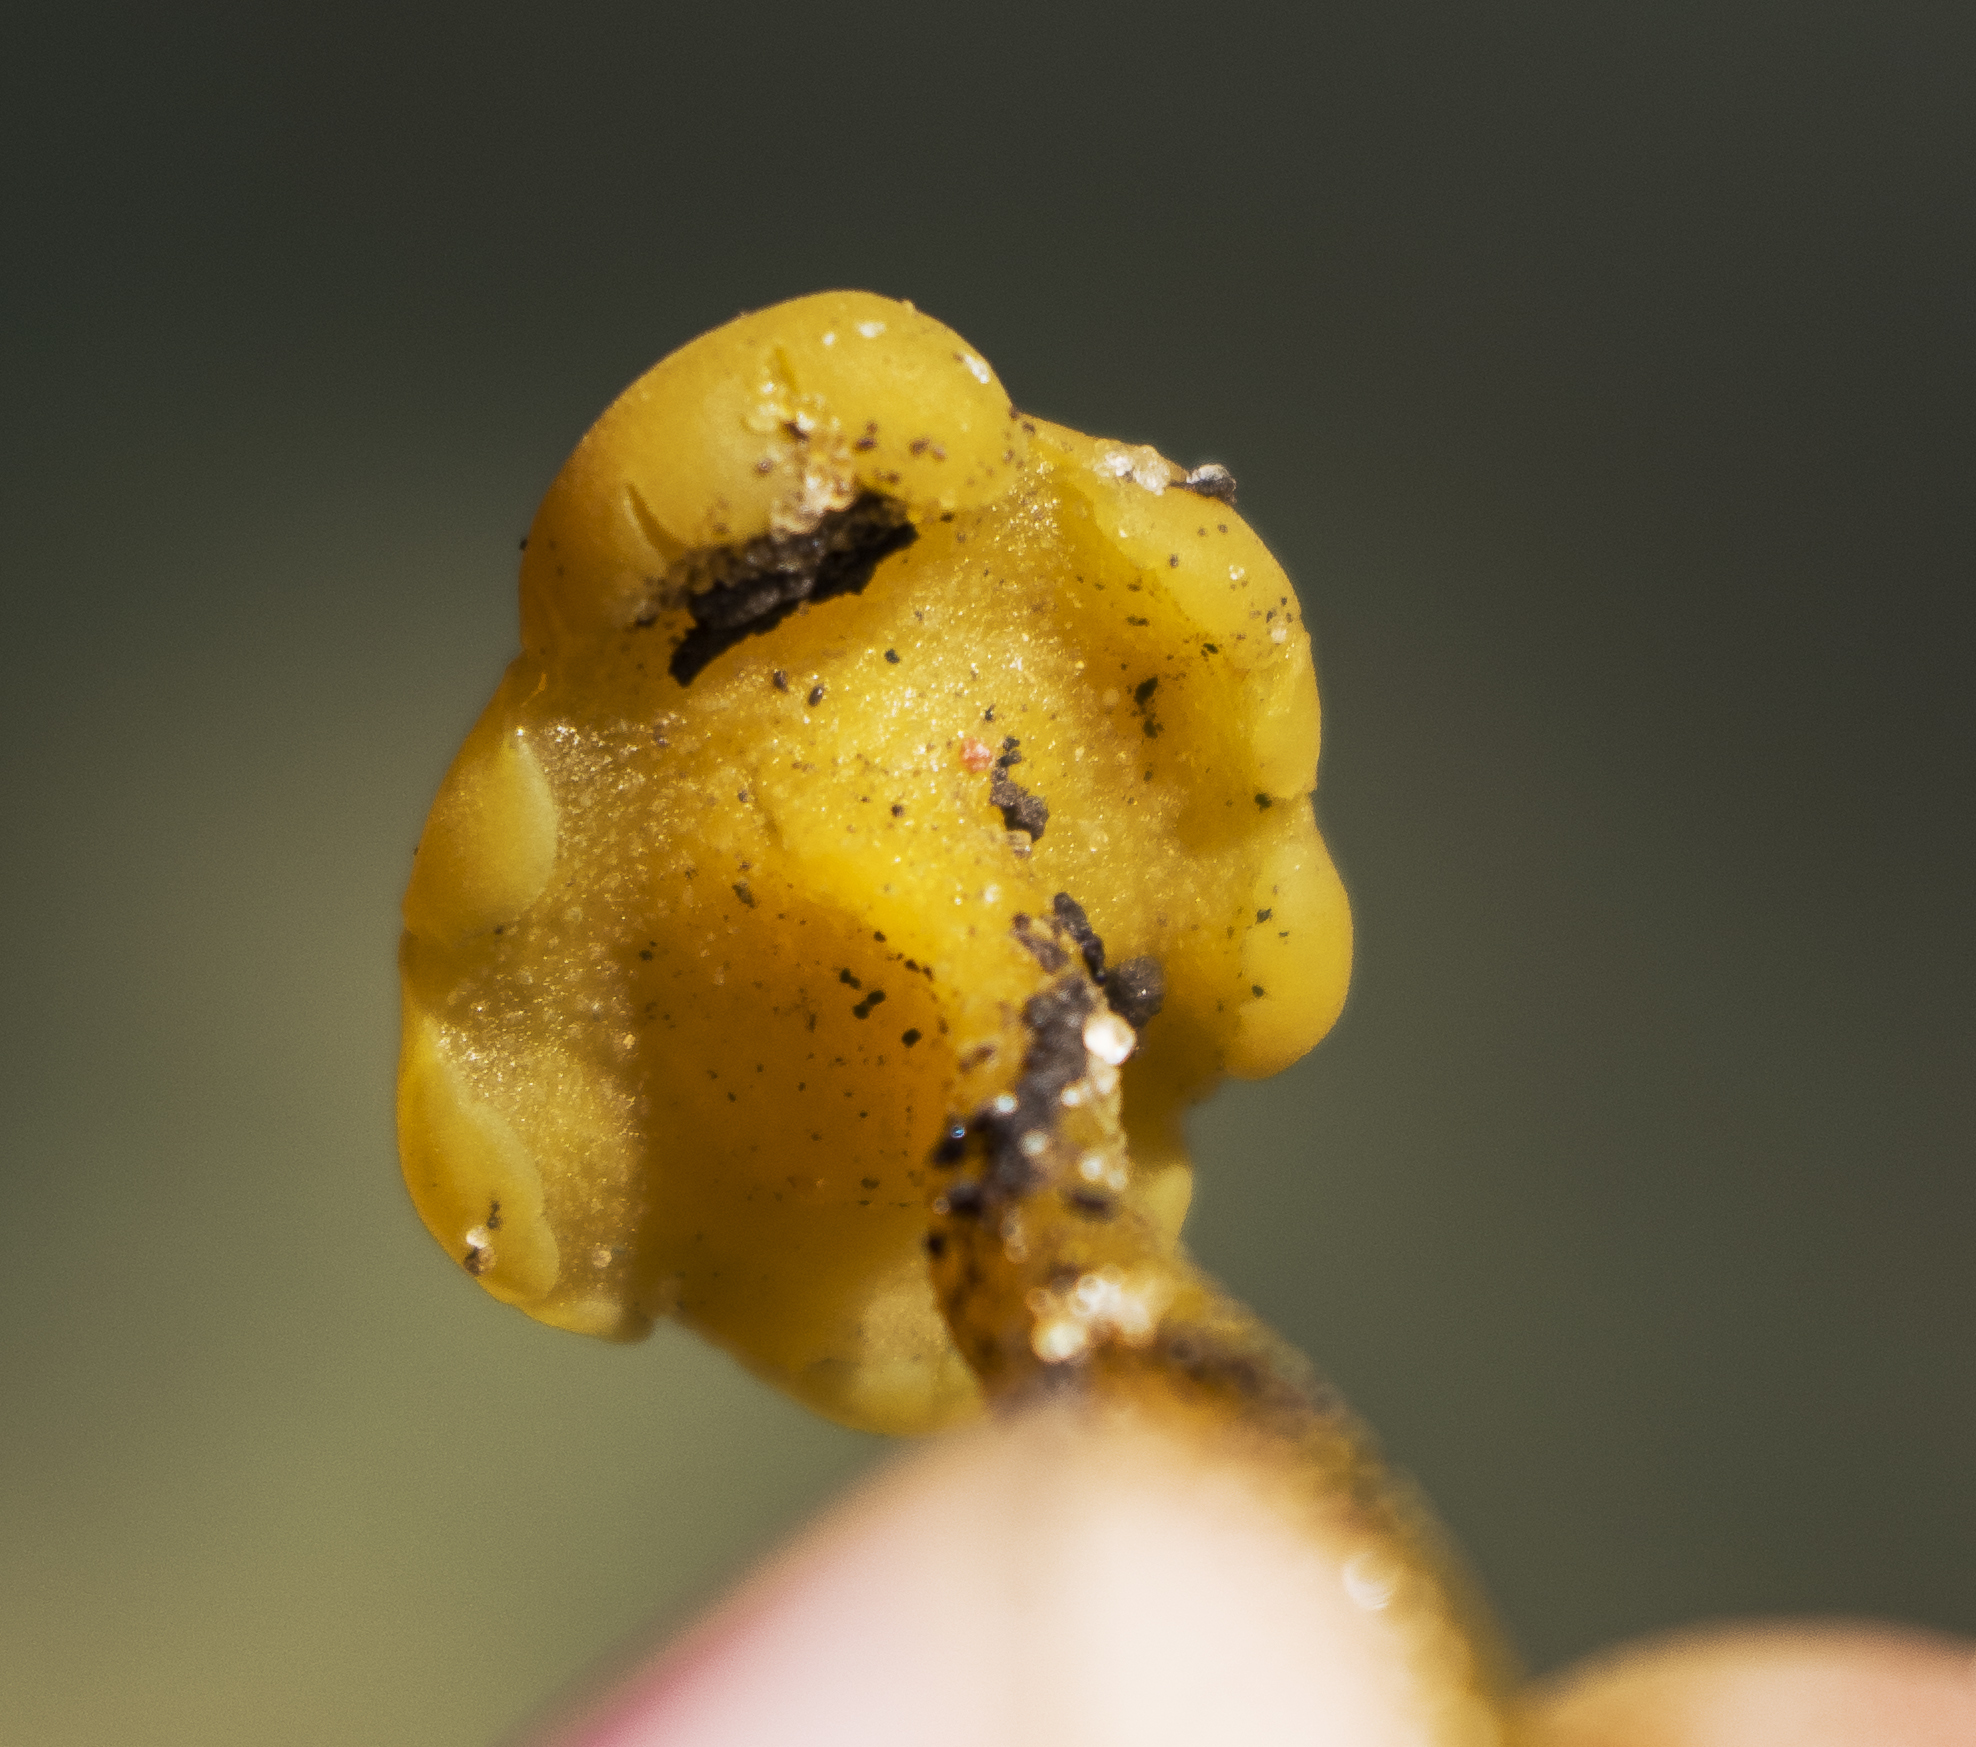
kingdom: Fungi
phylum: Ascomycota
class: Leotiomycetes
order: Leotiales
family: Leotiaceae
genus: Leotia
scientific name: Leotia lubrica
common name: Jellybaby
